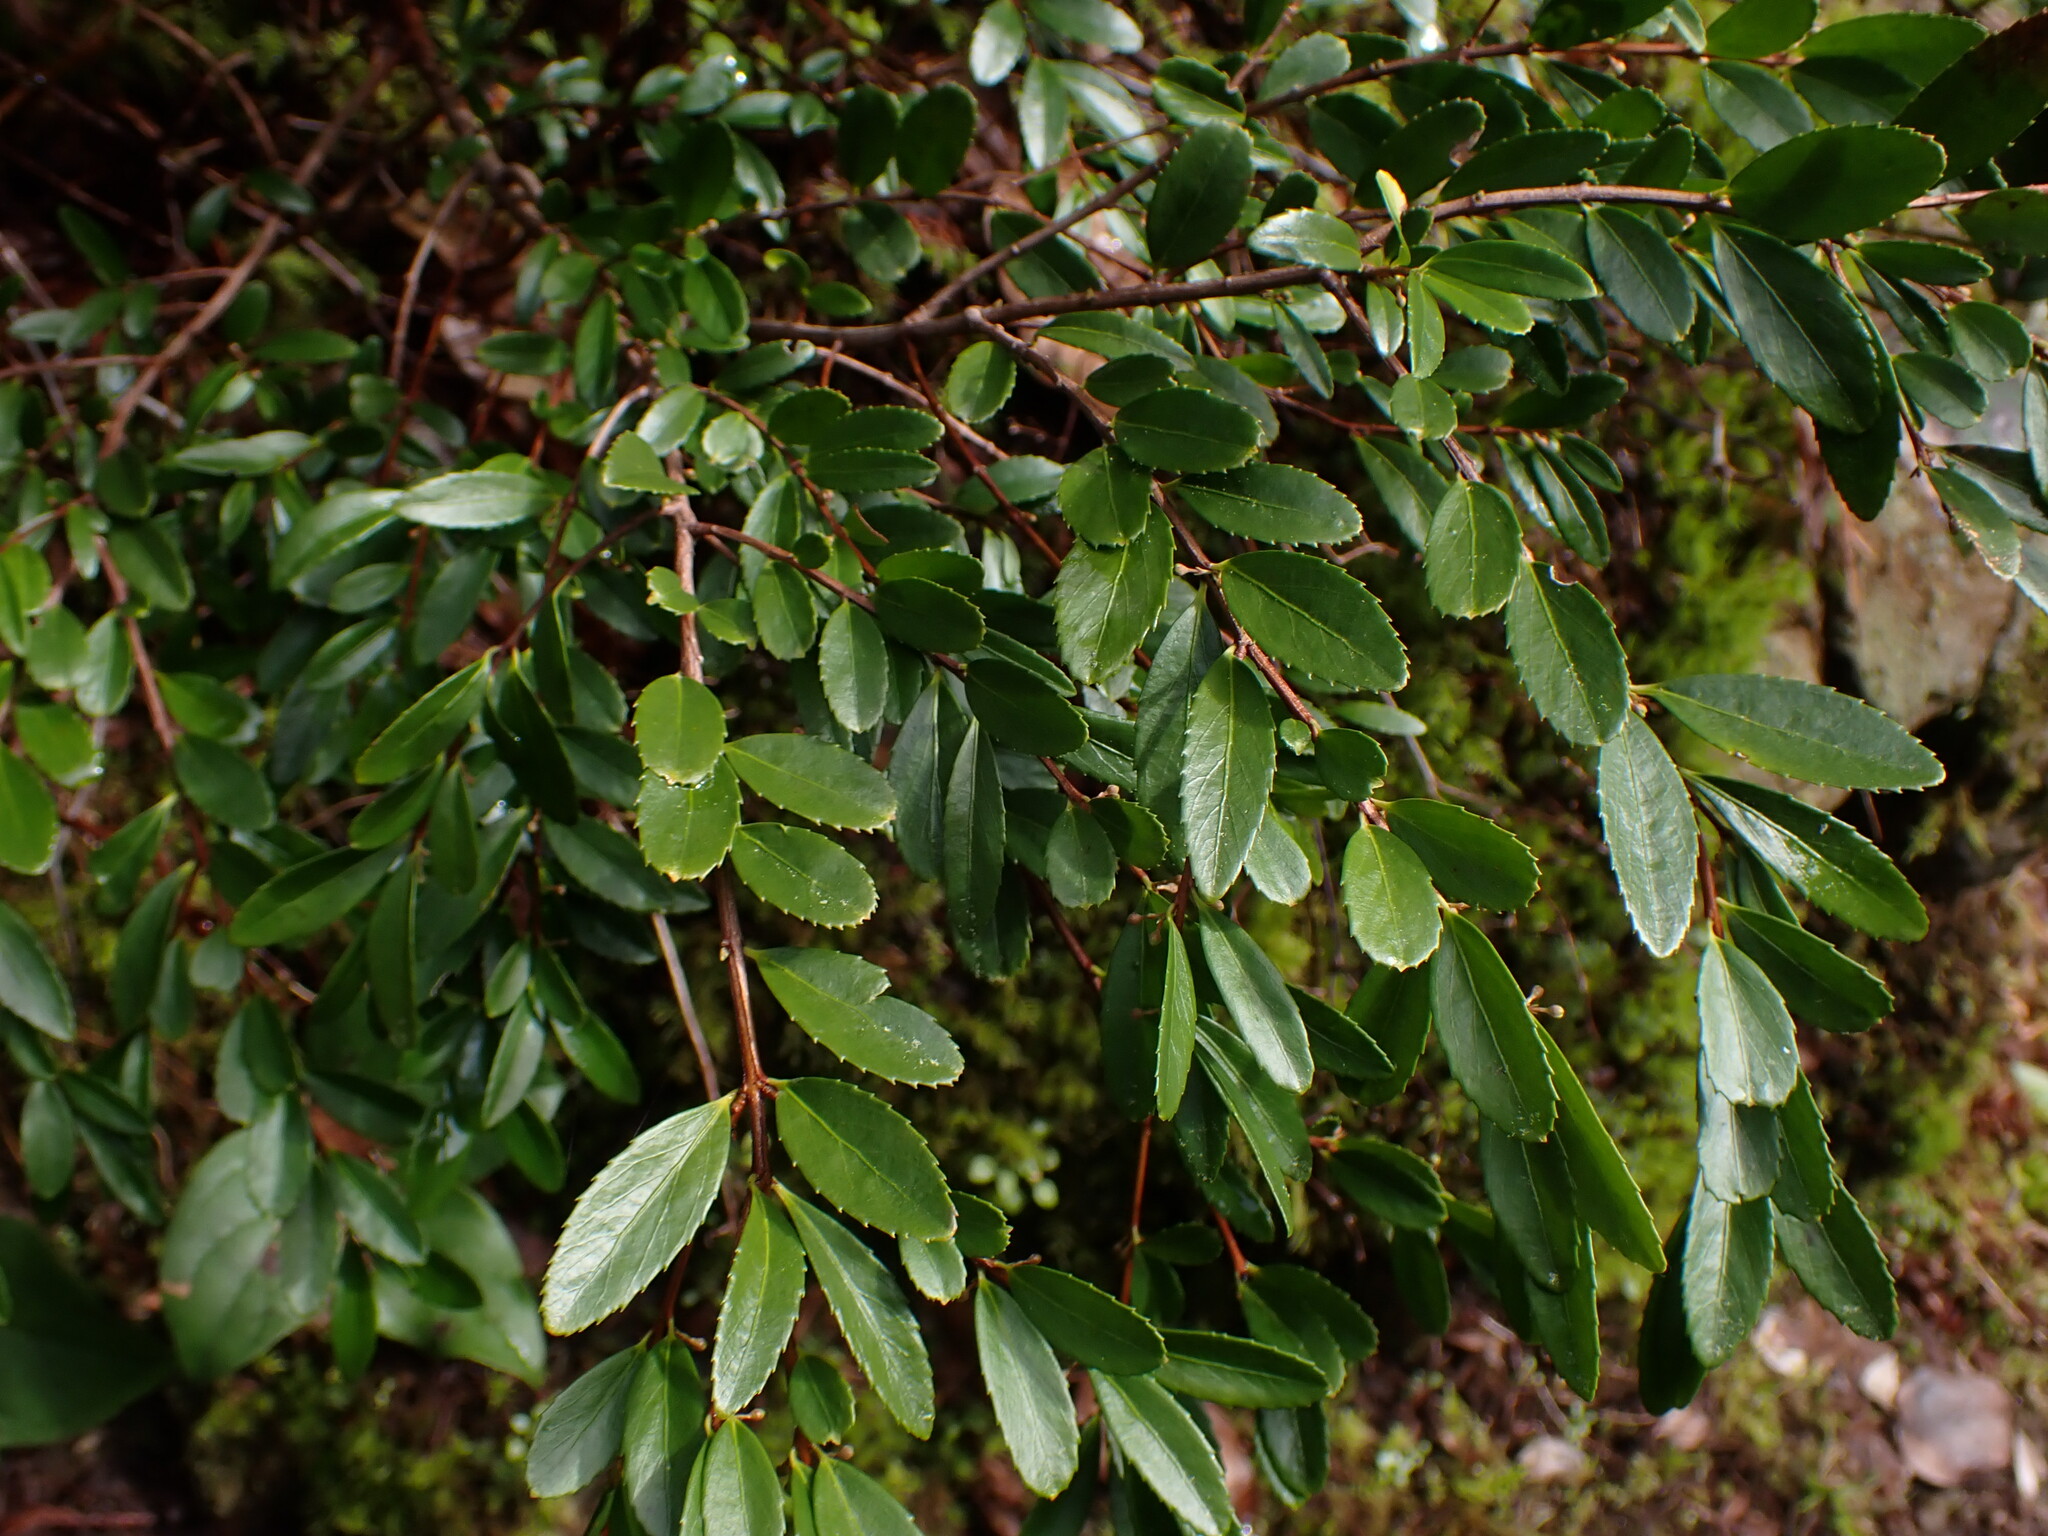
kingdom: Plantae
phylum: Tracheophyta
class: Magnoliopsida
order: Celastrales
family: Celastraceae
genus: Paxistima
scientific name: Paxistima myrsinites
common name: Mountain-lover
